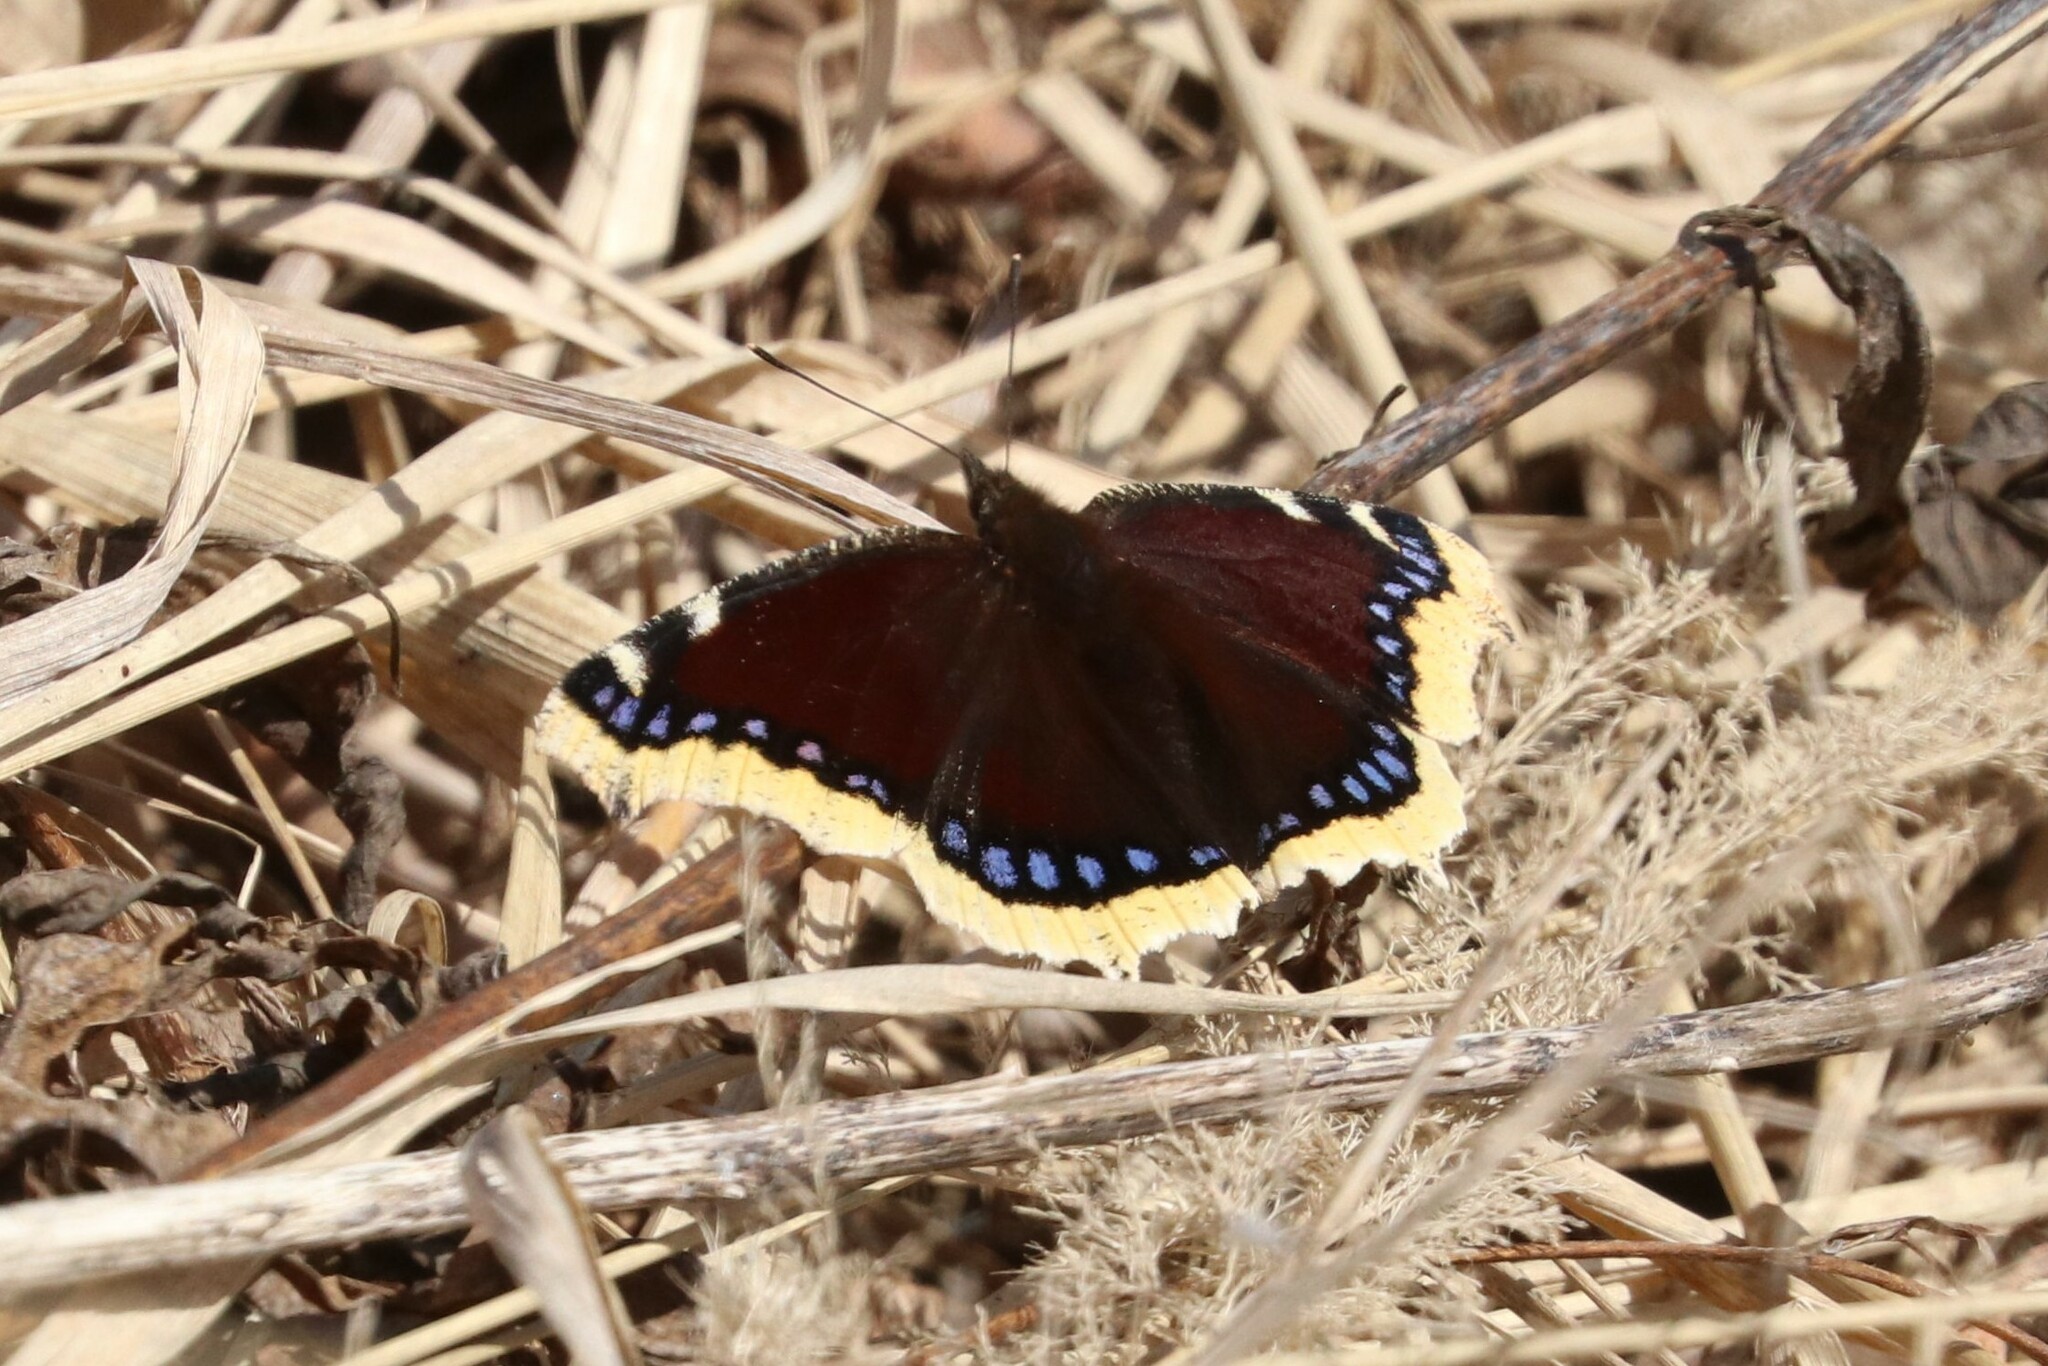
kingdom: Animalia
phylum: Arthropoda
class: Insecta
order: Lepidoptera
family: Nymphalidae
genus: Nymphalis
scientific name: Nymphalis antiopa
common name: Camberwell beauty
